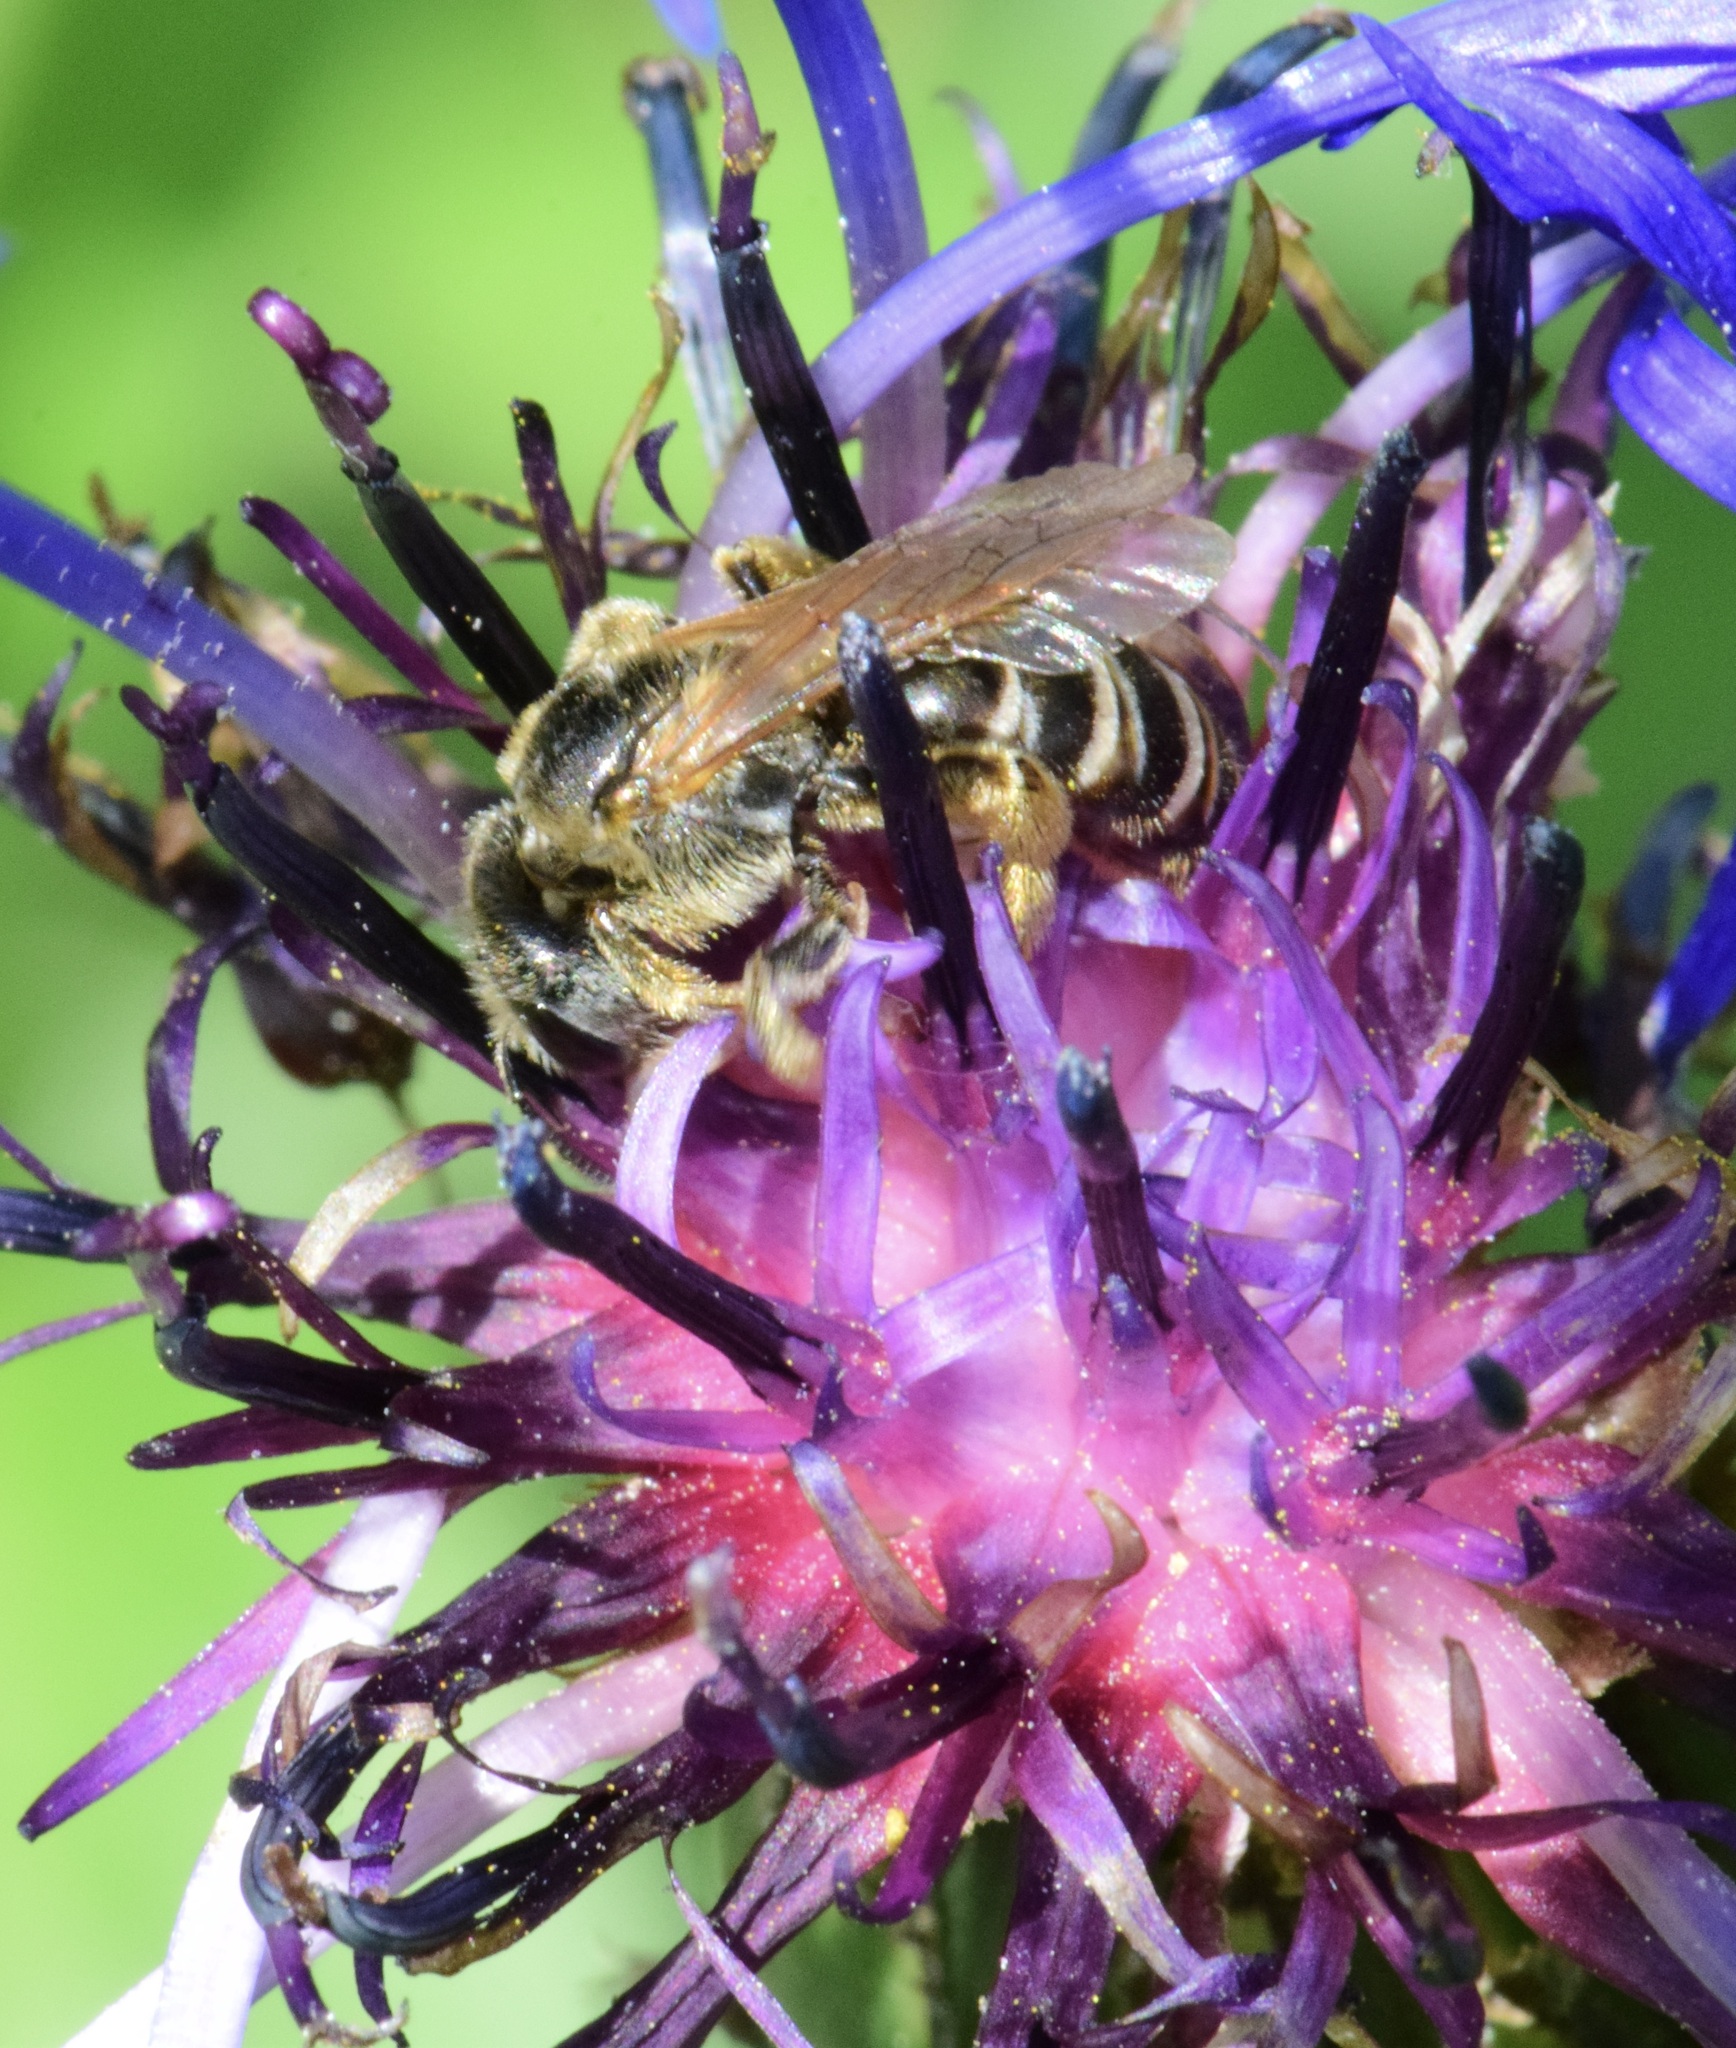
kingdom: Animalia
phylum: Arthropoda
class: Insecta
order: Hymenoptera
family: Halictidae
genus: Halictus
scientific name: Halictus ligatus
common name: Ligated furrow bee
